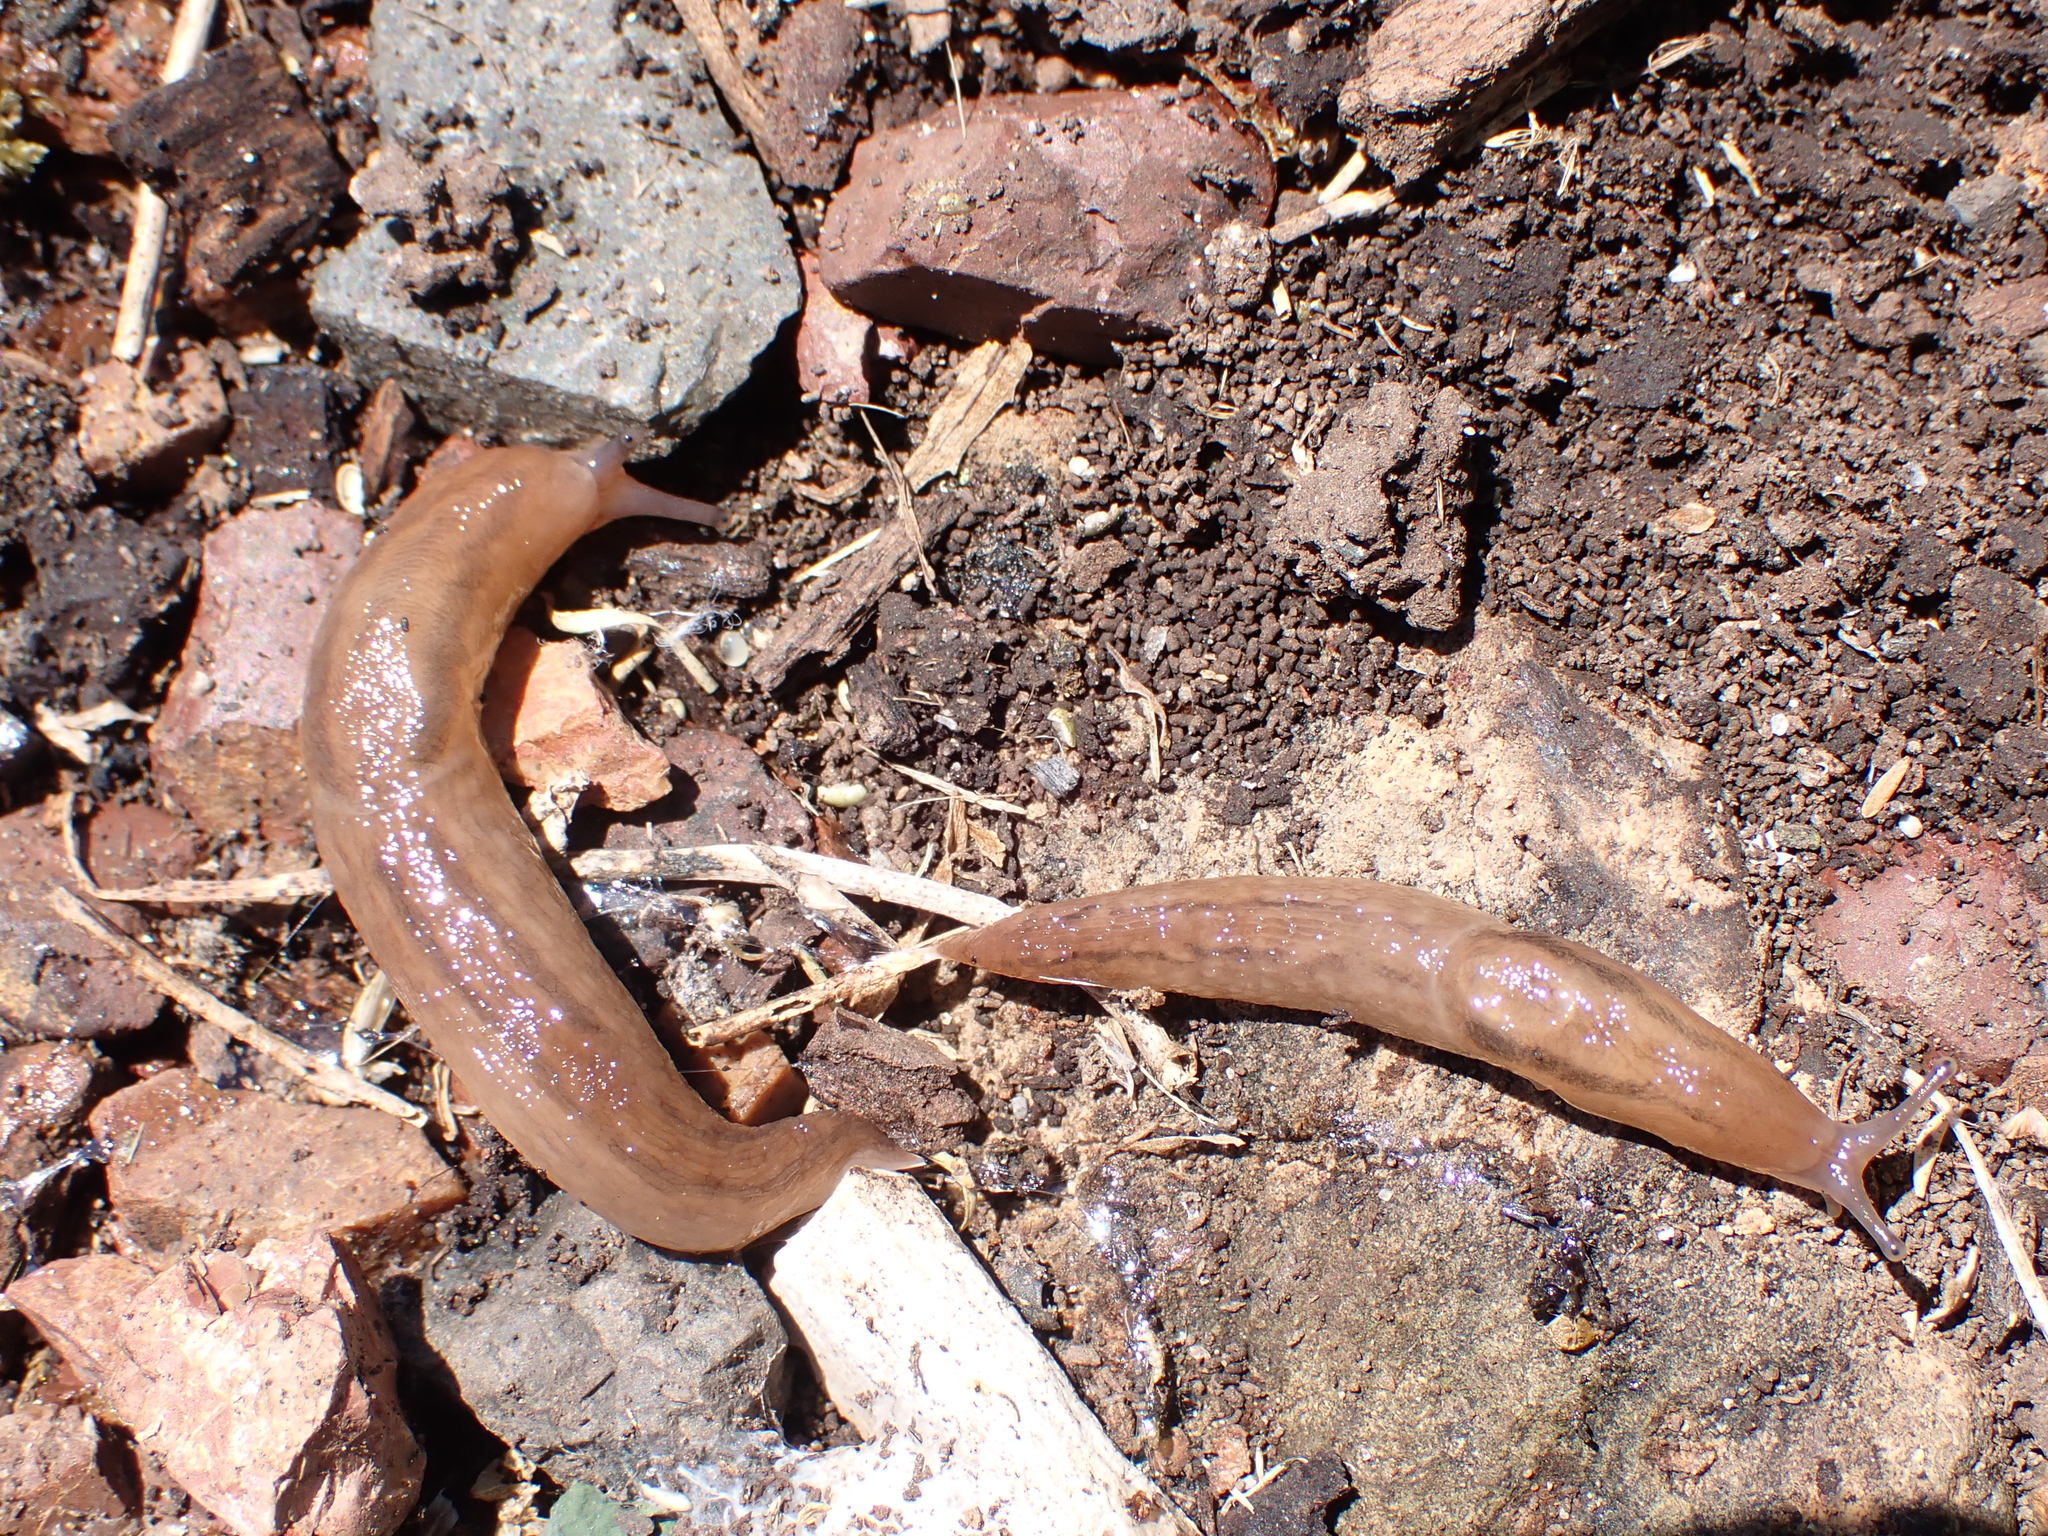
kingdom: Animalia
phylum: Mollusca
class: Gastropoda
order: Stylommatophora
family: Limacidae
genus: Ambigolimax
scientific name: Ambigolimax
